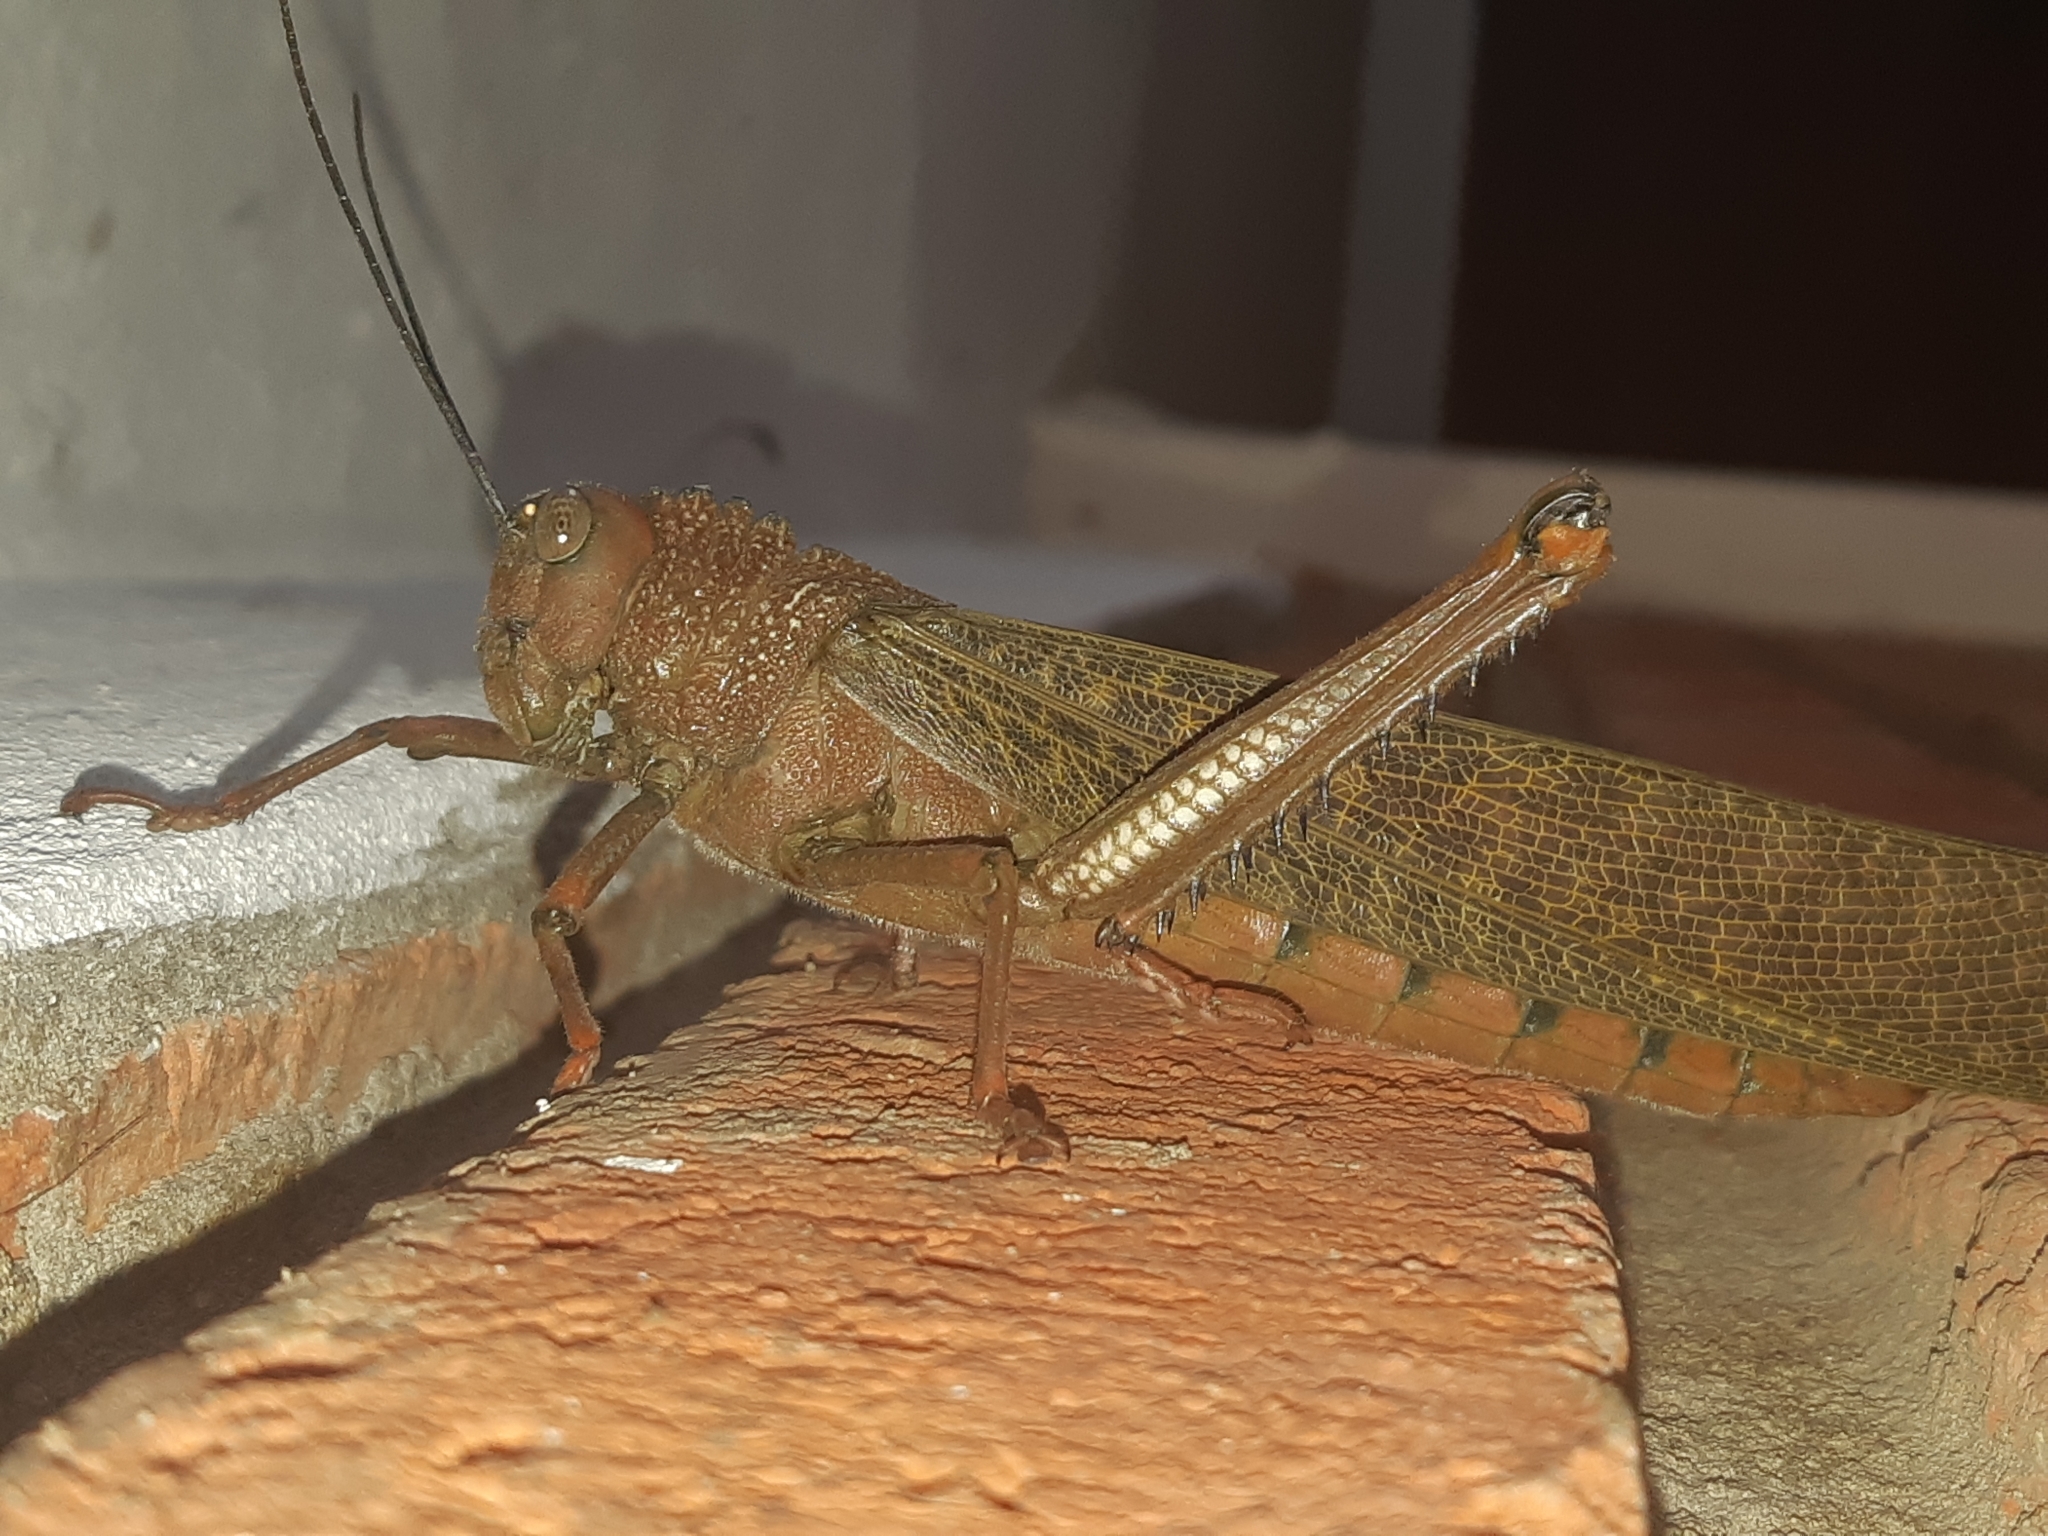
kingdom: Animalia
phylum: Arthropoda
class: Insecta
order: Orthoptera
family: Romaleidae
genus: Tropidacris
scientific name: Tropidacris cristata
